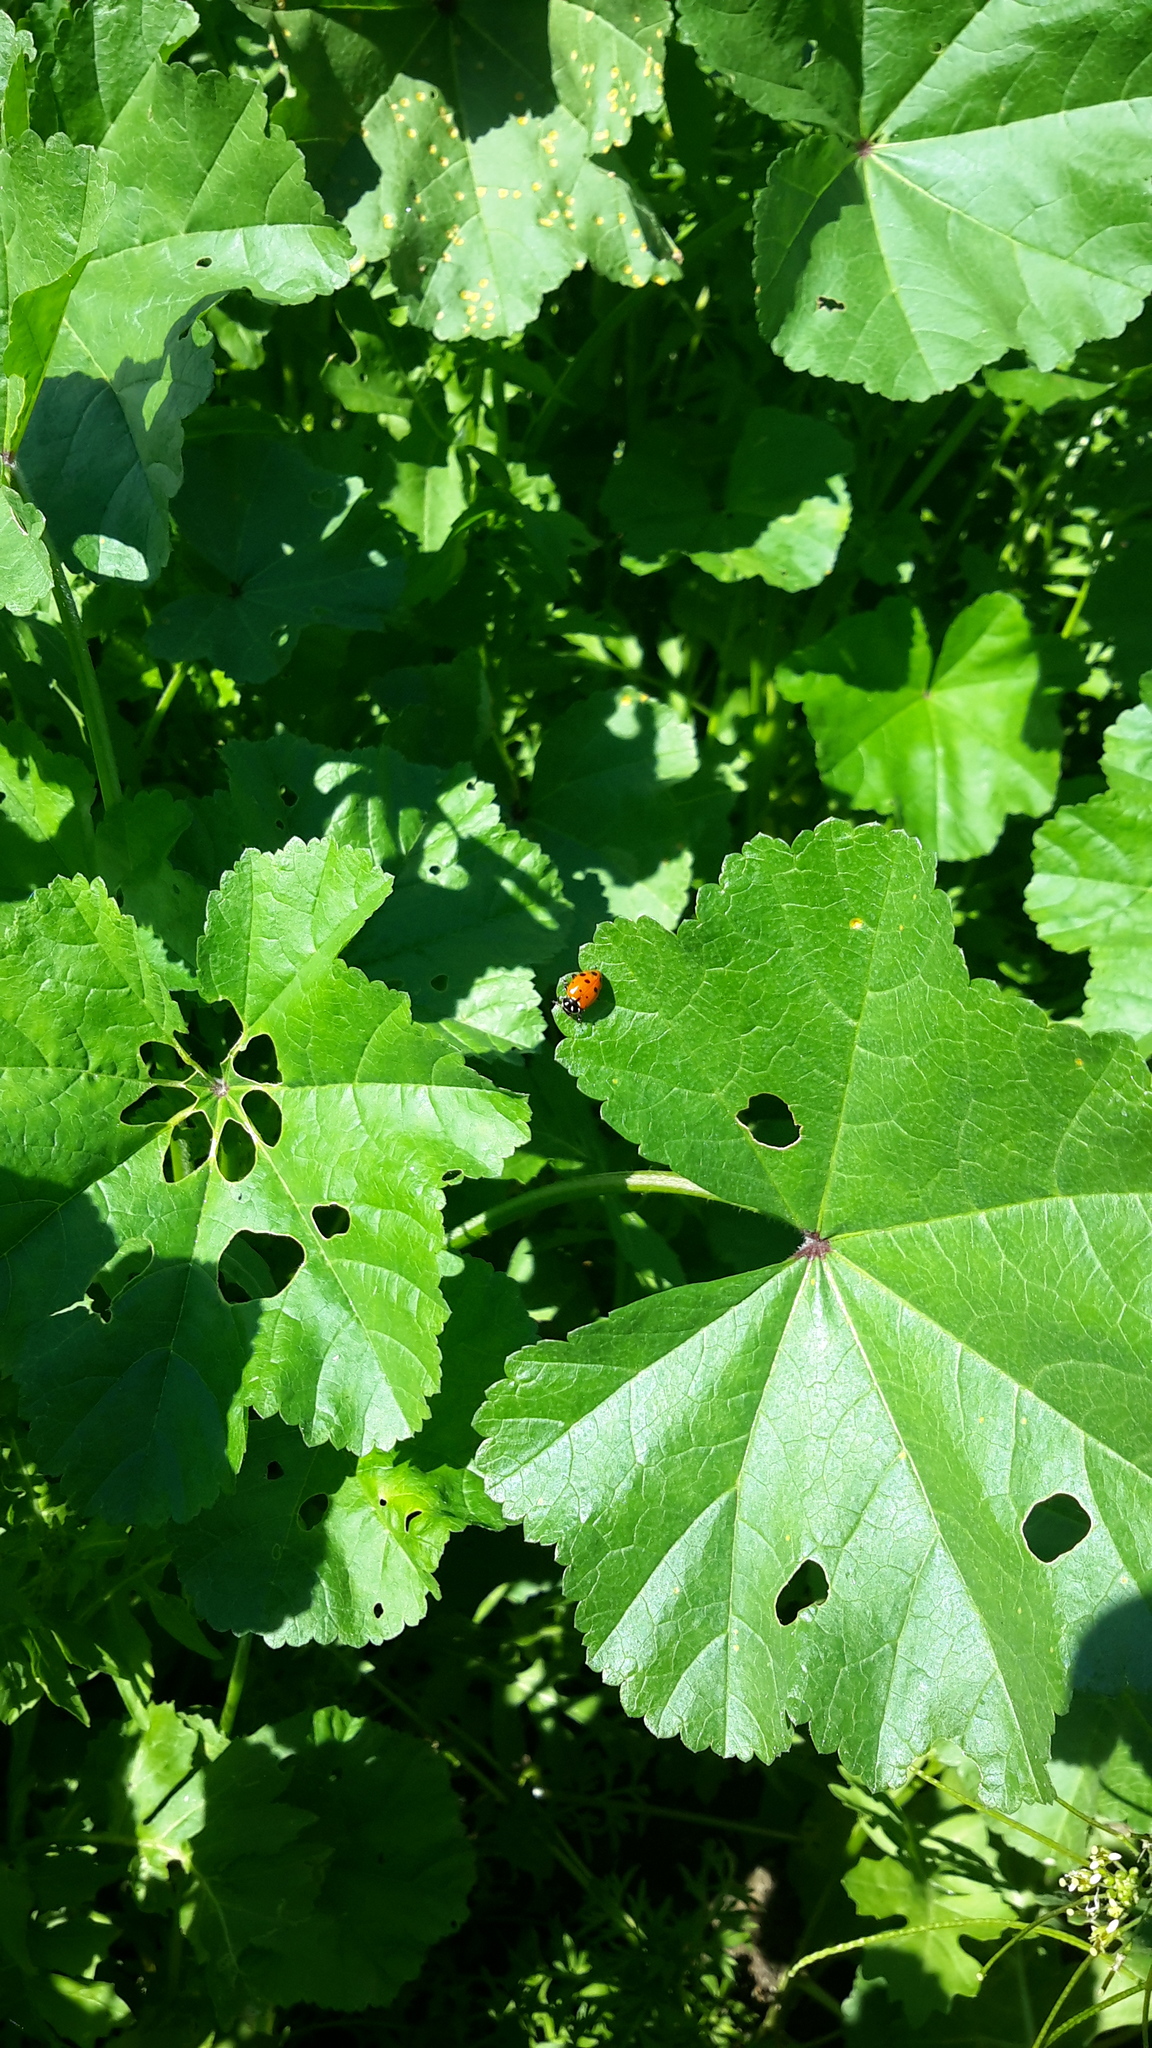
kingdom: Animalia
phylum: Arthropoda
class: Insecta
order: Coleoptera
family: Coccinellidae
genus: Hippodamia
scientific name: Hippodamia convergens
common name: Convergent lady beetle
